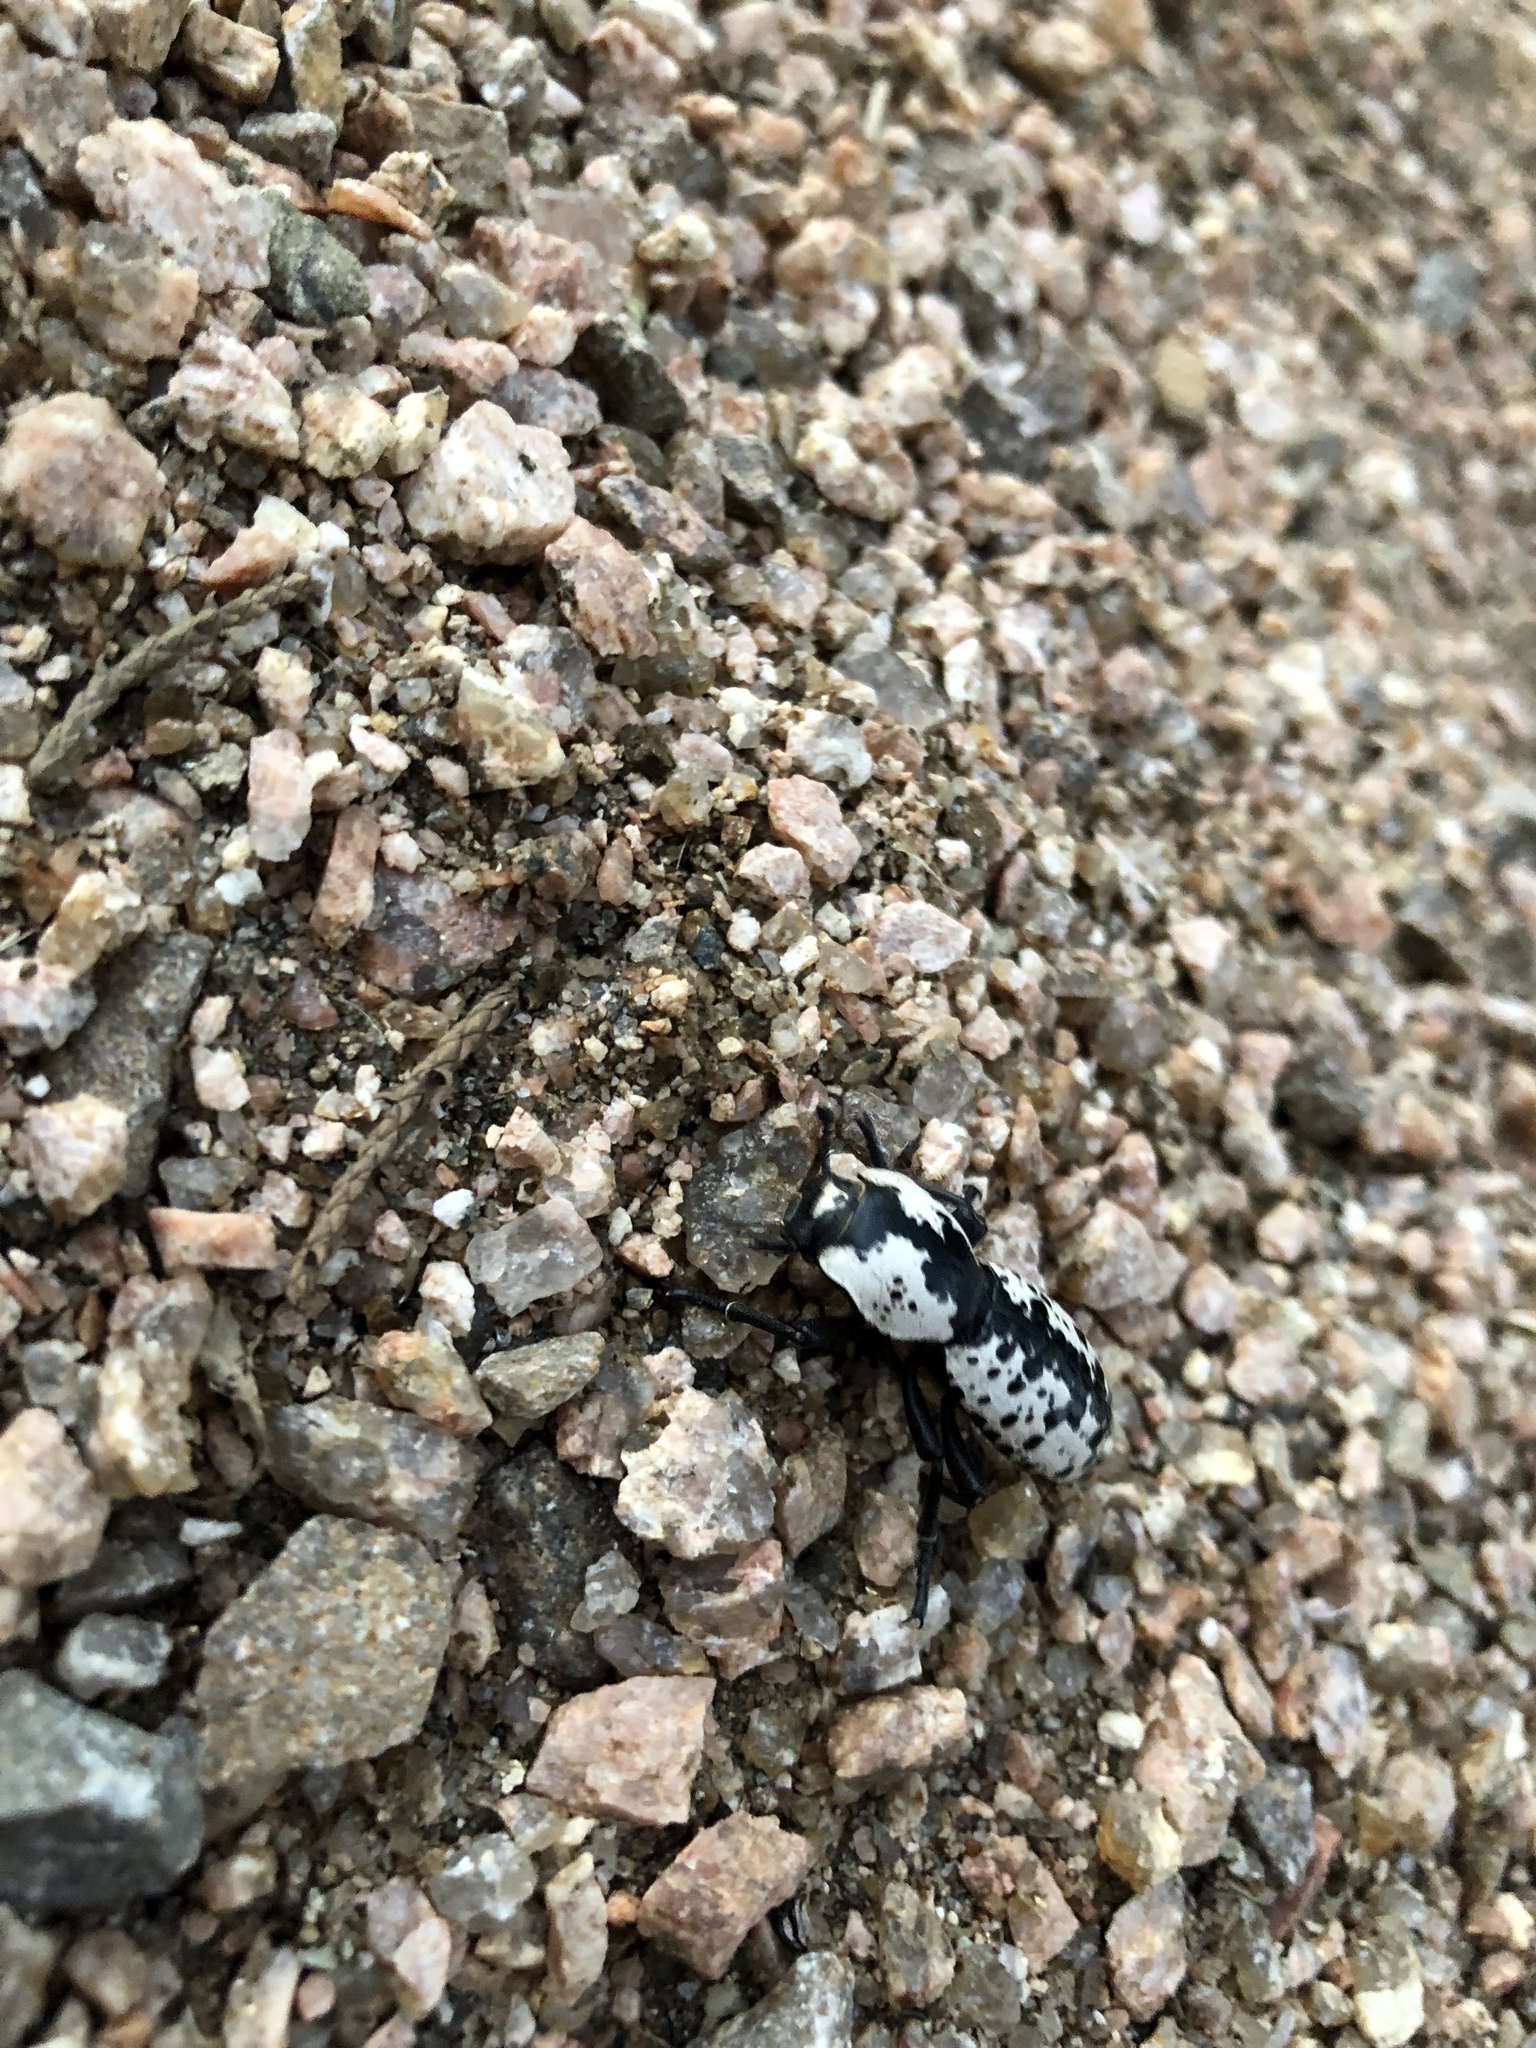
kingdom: Animalia
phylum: Arthropoda
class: Insecta
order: Coleoptera
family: Zopheridae
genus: Zopherus
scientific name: Zopherus nodulosus
